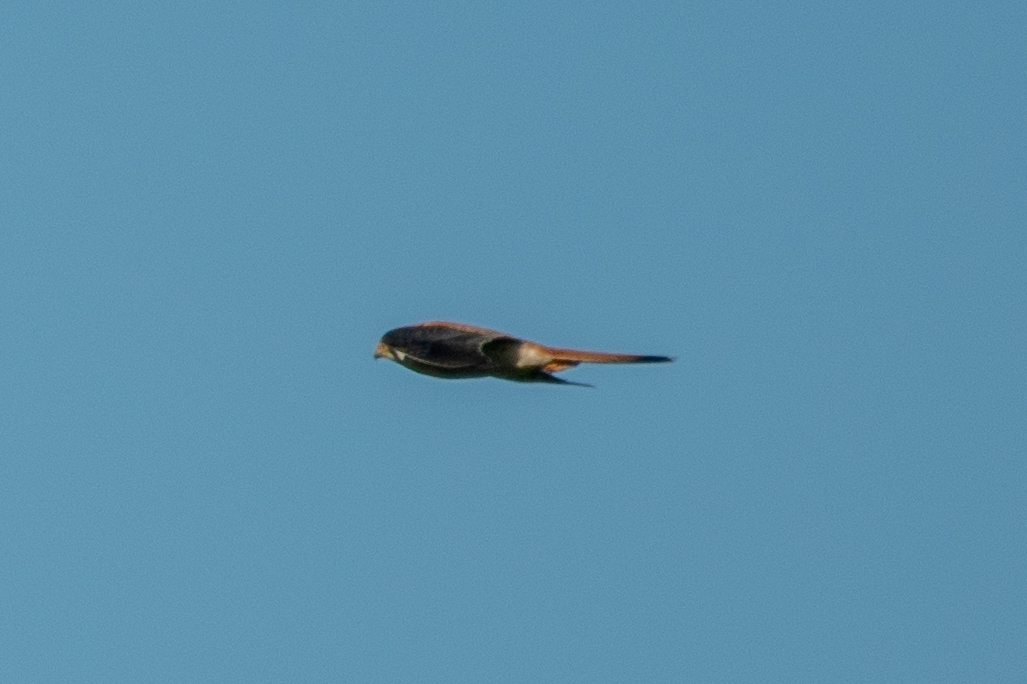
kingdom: Animalia
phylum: Chordata
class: Aves
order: Falconiformes
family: Falconidae
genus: Falco
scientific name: Falco sparverius
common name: American kestrel
